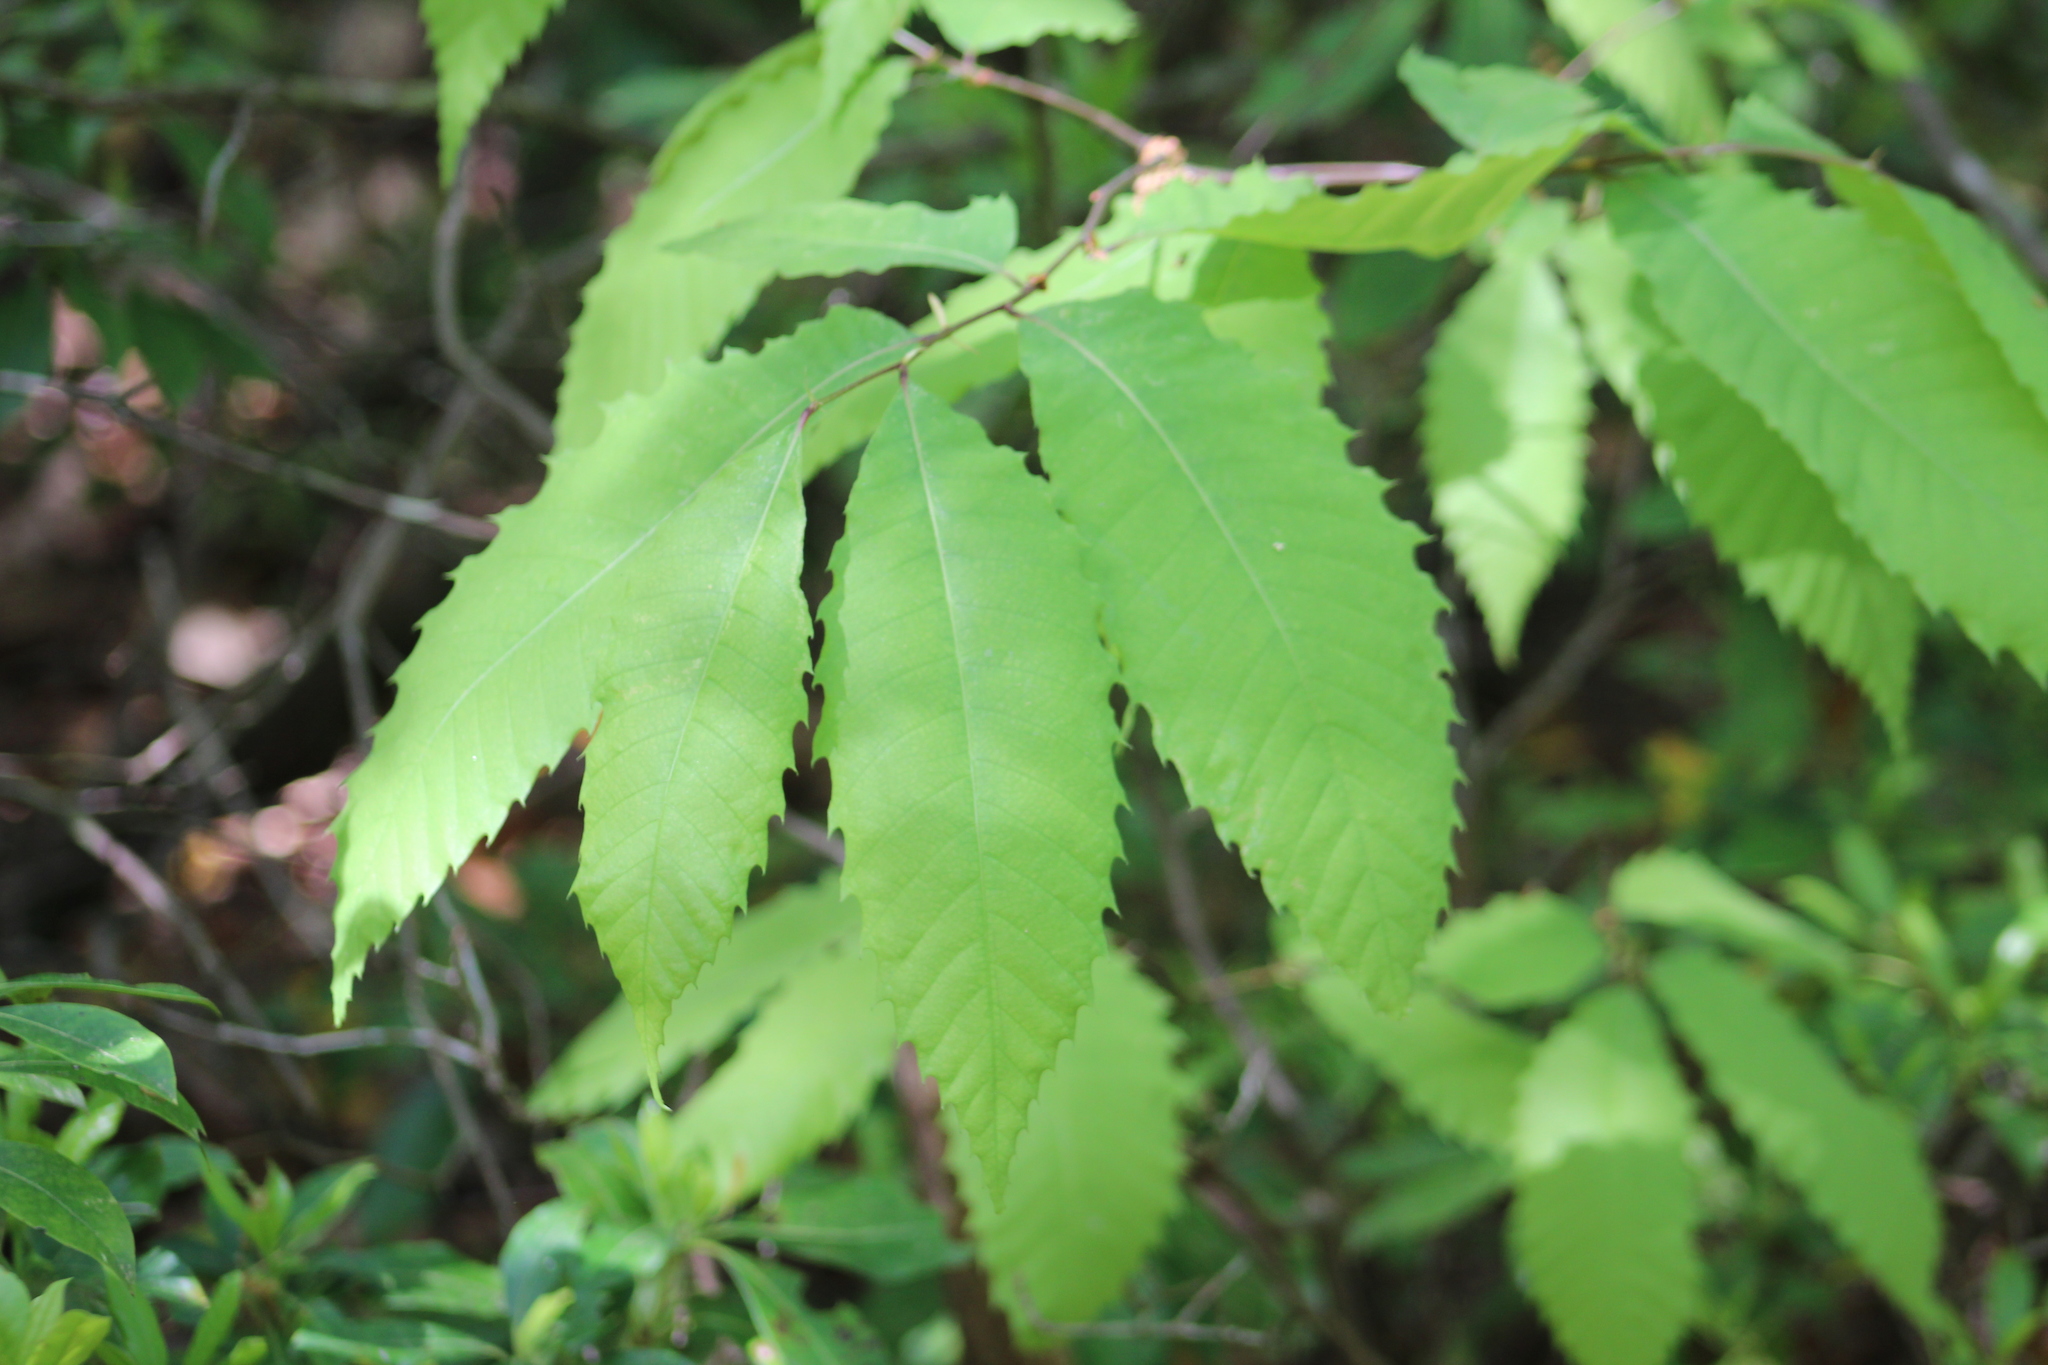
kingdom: Plantae
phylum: Tracheophyta
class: Magnoliopsida
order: Fagales
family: Fagaceae
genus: Castanea
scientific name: Castanea dentata
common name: American chestnut
